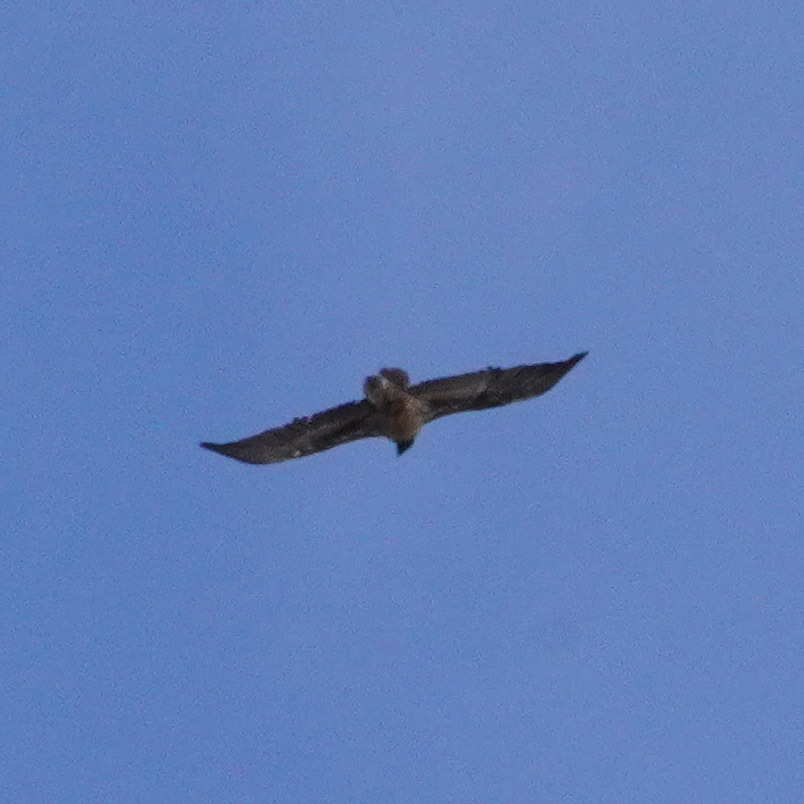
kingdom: Animalia
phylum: Chordata
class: Aves
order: Accipitriformes
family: Accipitridae
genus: Gypaetus
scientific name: Gypaetus barbatus
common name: Bearded vulture
